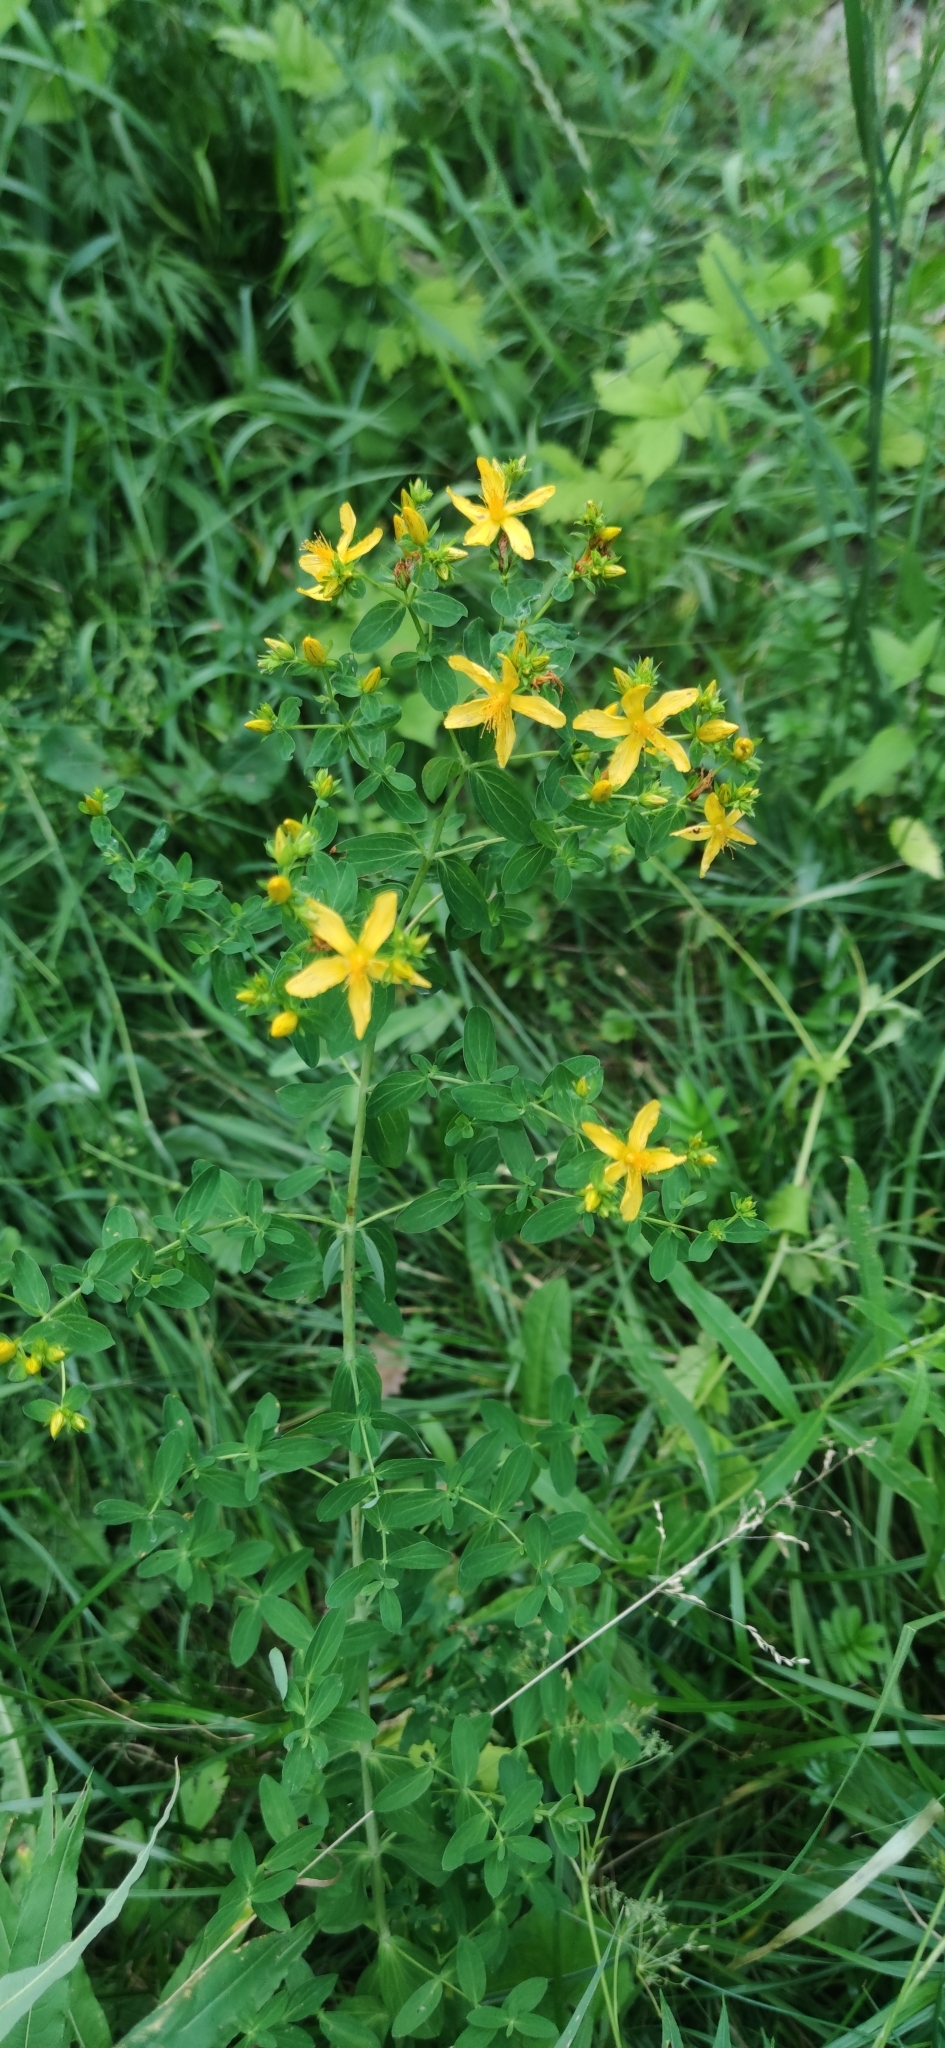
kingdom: Plantae
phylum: Tracheophyta
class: Magnoliopsida
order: Malpighiales
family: Hypericaceae
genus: Hypericum
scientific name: Hypericum perforatum
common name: Common st. johnswort
